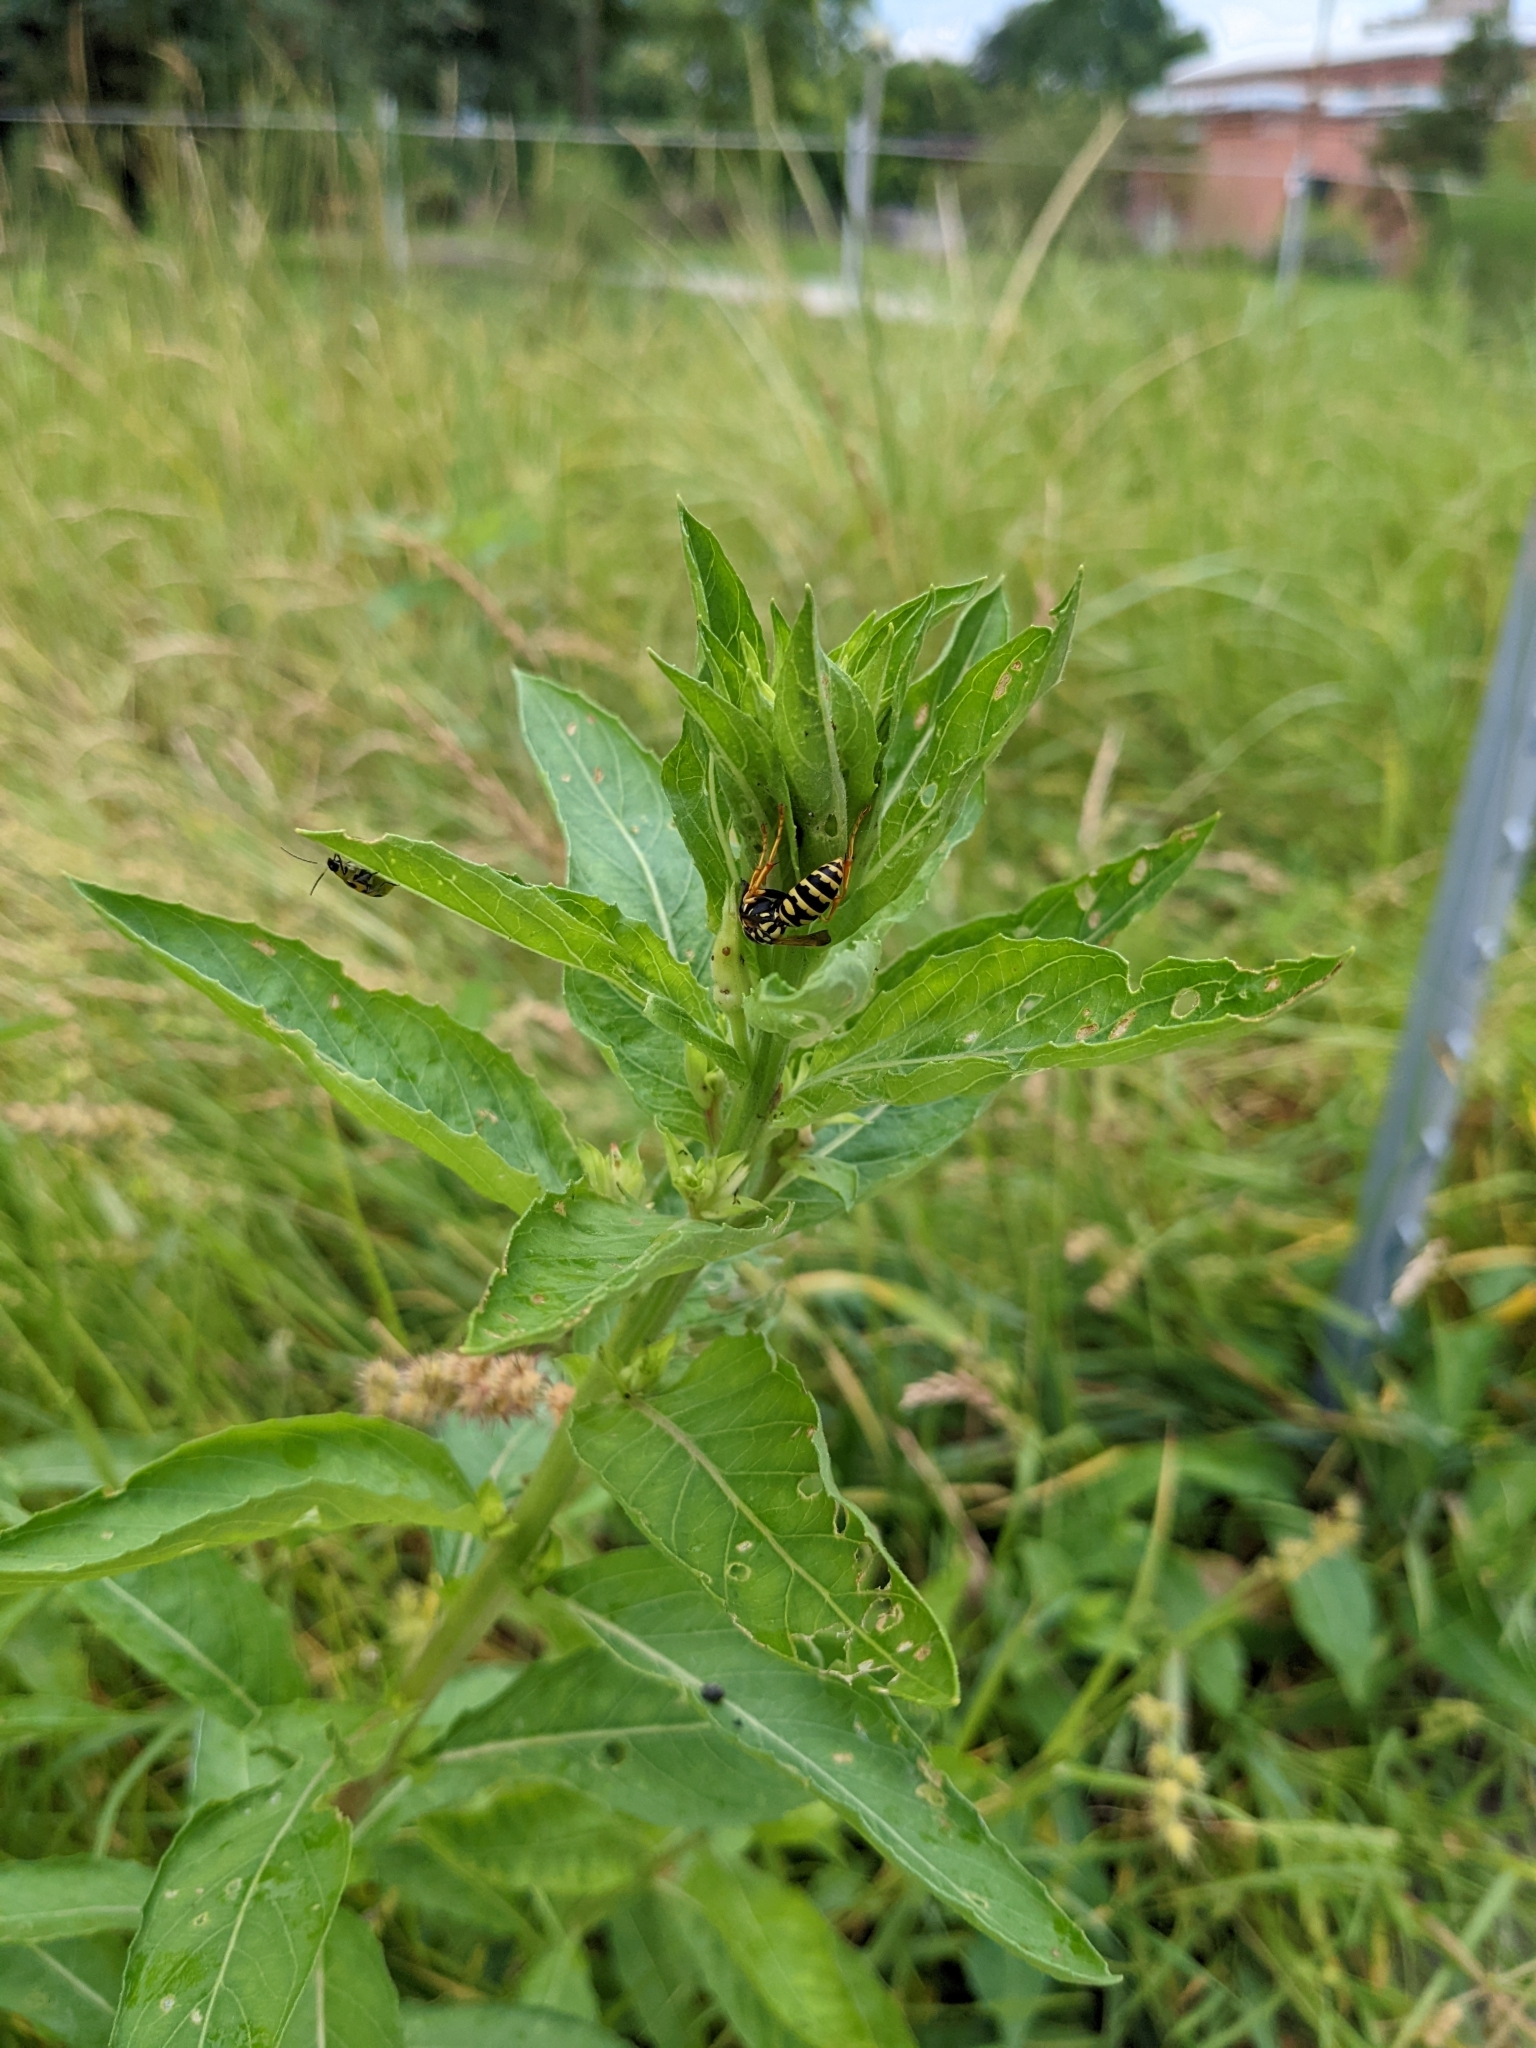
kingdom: Animalia
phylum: Arthropoda
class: Insecta
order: Hymenoptera
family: Eumenidae
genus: Polistes
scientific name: Polistes dominula
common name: Paper wasp
